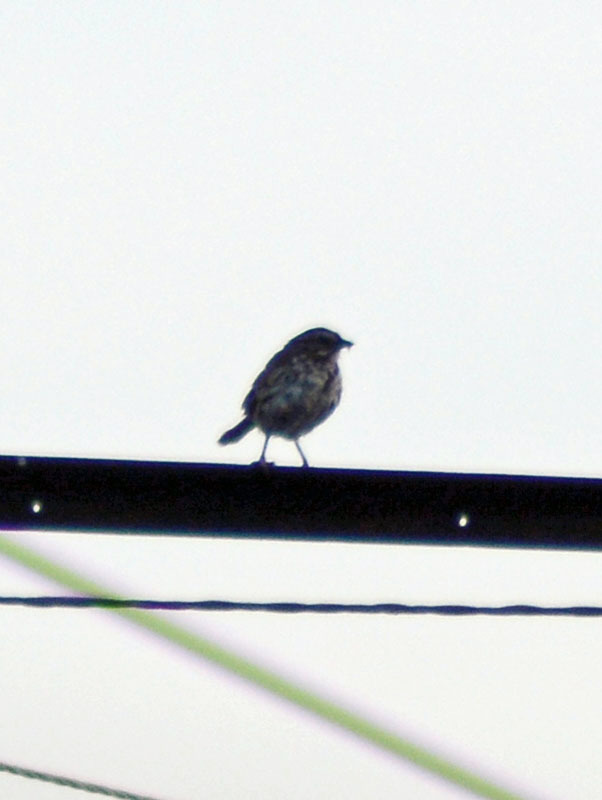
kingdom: Animalia
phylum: Chordata
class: Aves
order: Passeriformes
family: Passerellidae
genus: Melospiza
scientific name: Melospiza melodia
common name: Song sparrow
